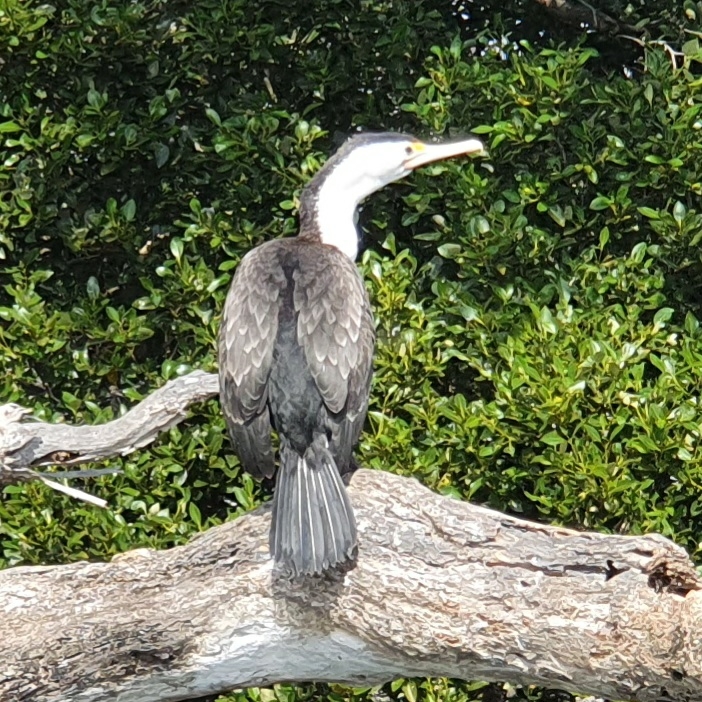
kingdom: Animalia
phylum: Chordata
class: Aves
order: Suliformes
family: Phalacrocoracidae
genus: Phalacrocorax
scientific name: Phalacrocorax varius
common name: Pied cormorant
